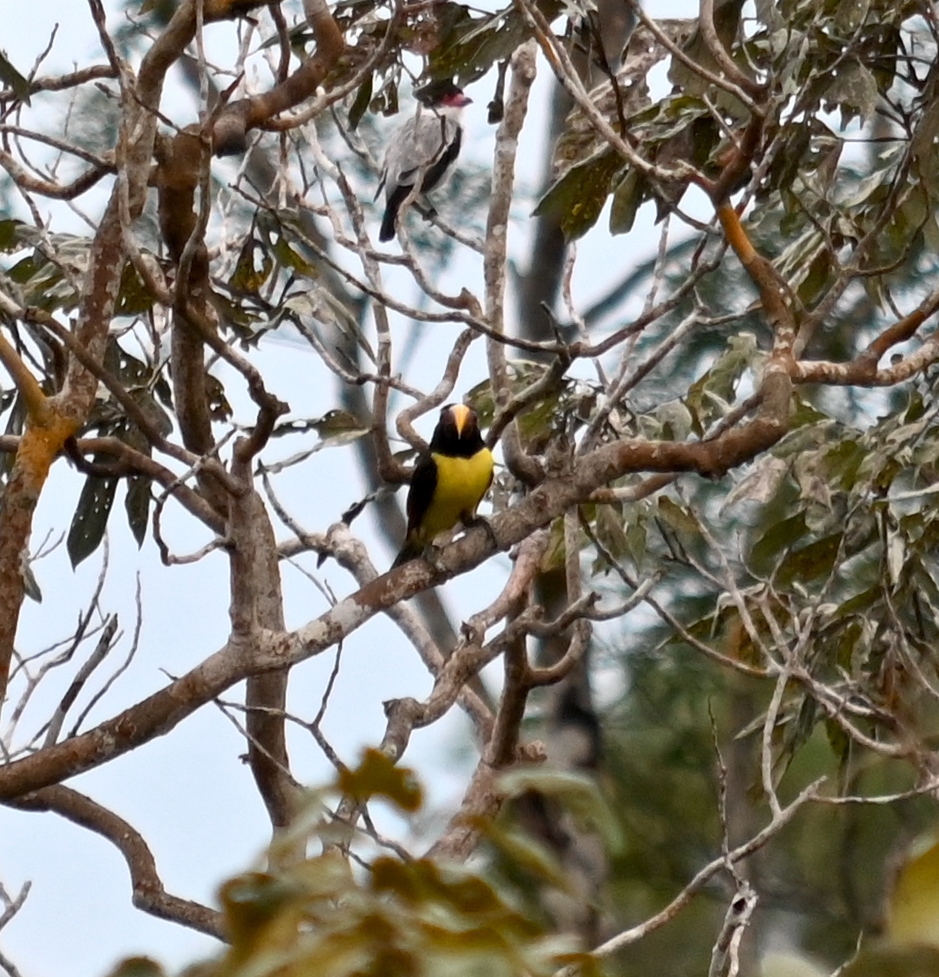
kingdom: Animalia
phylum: Chordata
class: Aves
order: Piciformes
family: Ramphastidae
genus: Pteroglossus
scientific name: Pteroglossus viridis
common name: Green aracari
